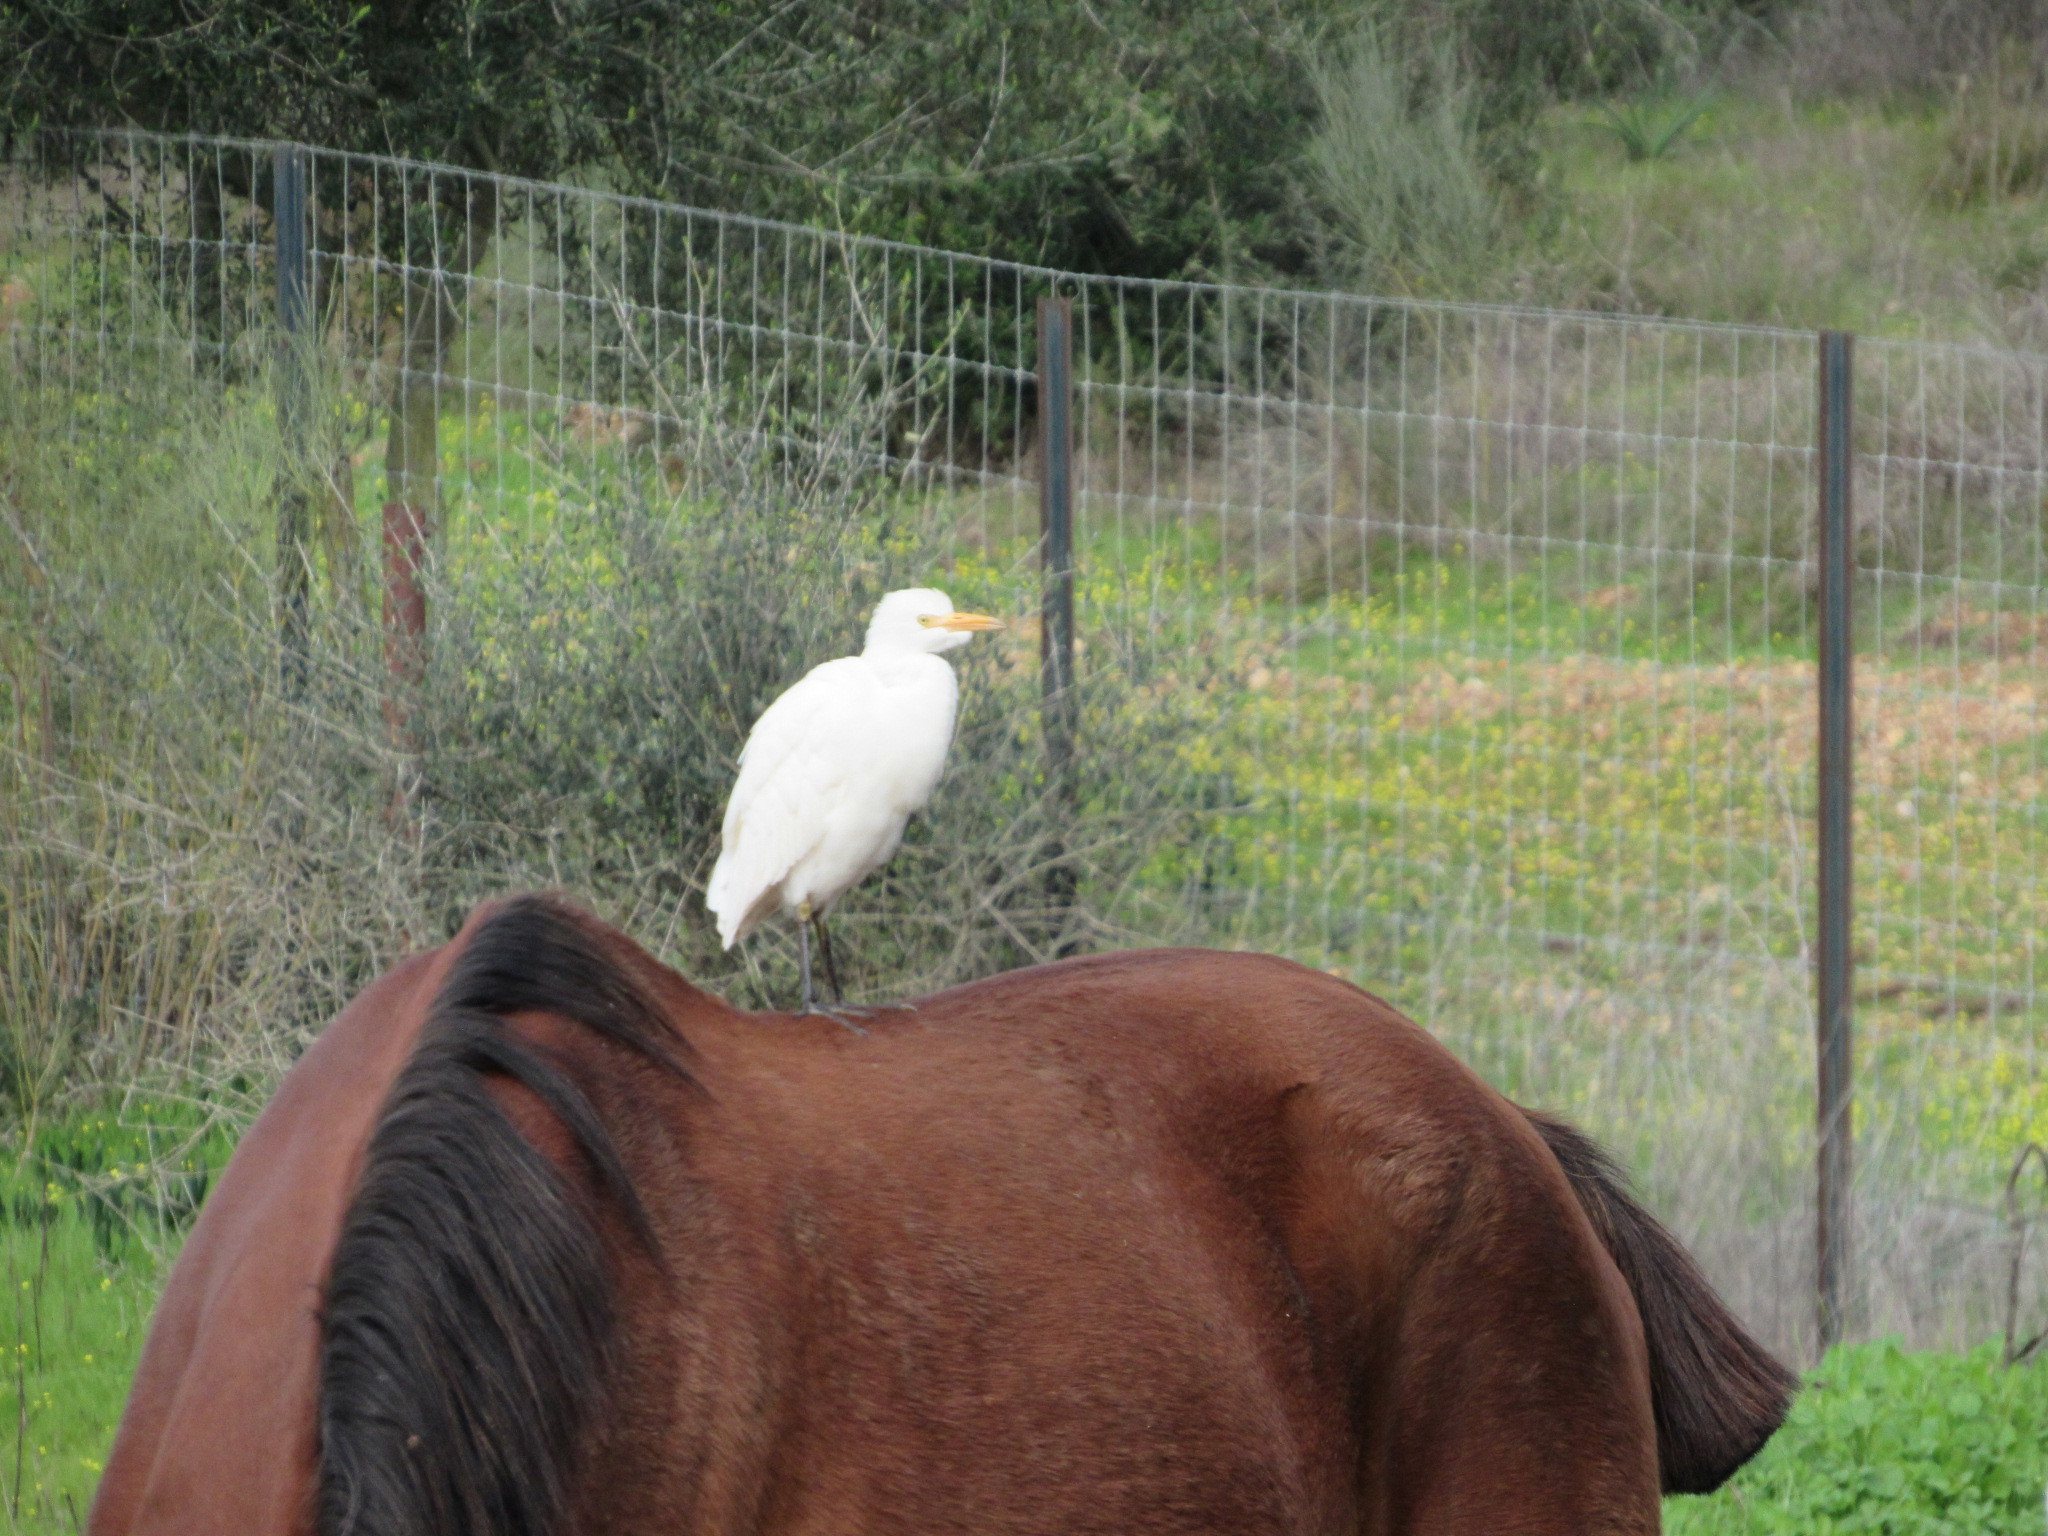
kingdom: Animalia
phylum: Chordata
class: Aves
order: Pelecaniformes
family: Ardeidae
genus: Bubulcus
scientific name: Bubulcus ibis
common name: Cattle egret
